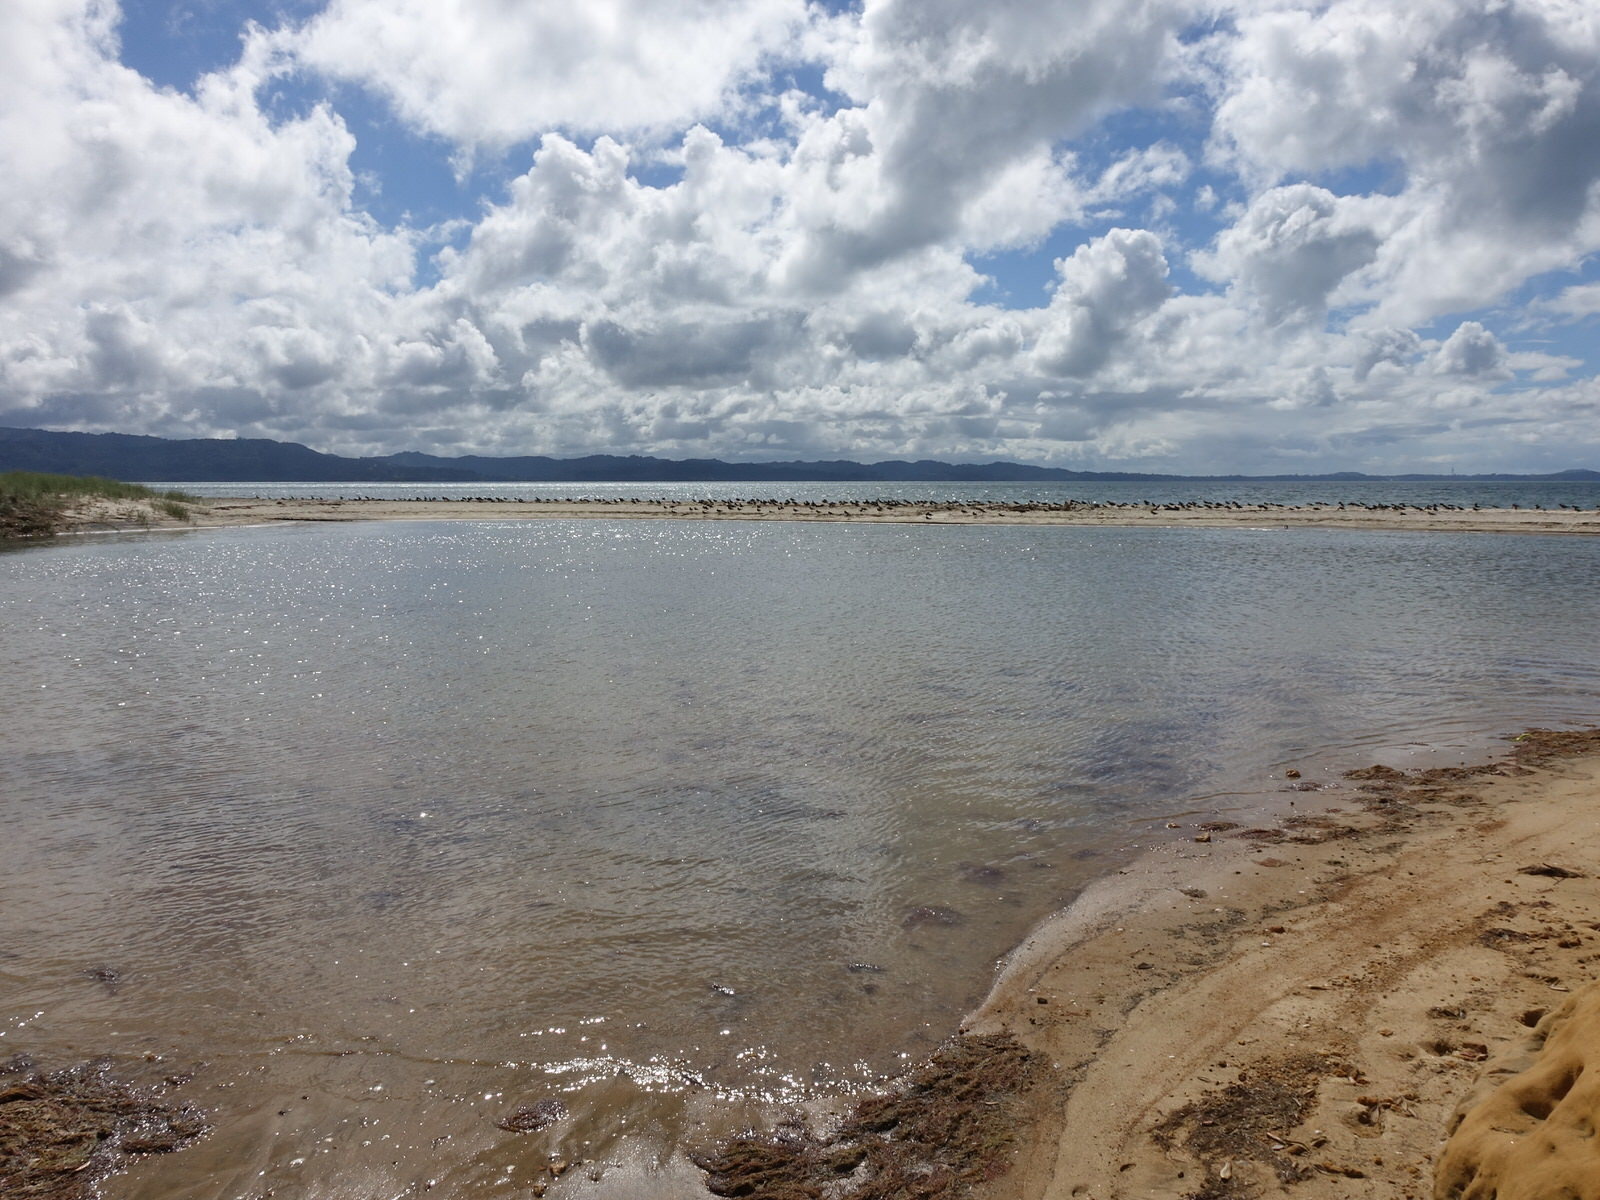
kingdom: Animalia
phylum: Chordata
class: Aves
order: Charadriiformes
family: Haematopodidae
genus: Haematopus
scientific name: Haematopus finschi
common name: South island oystercatcher
